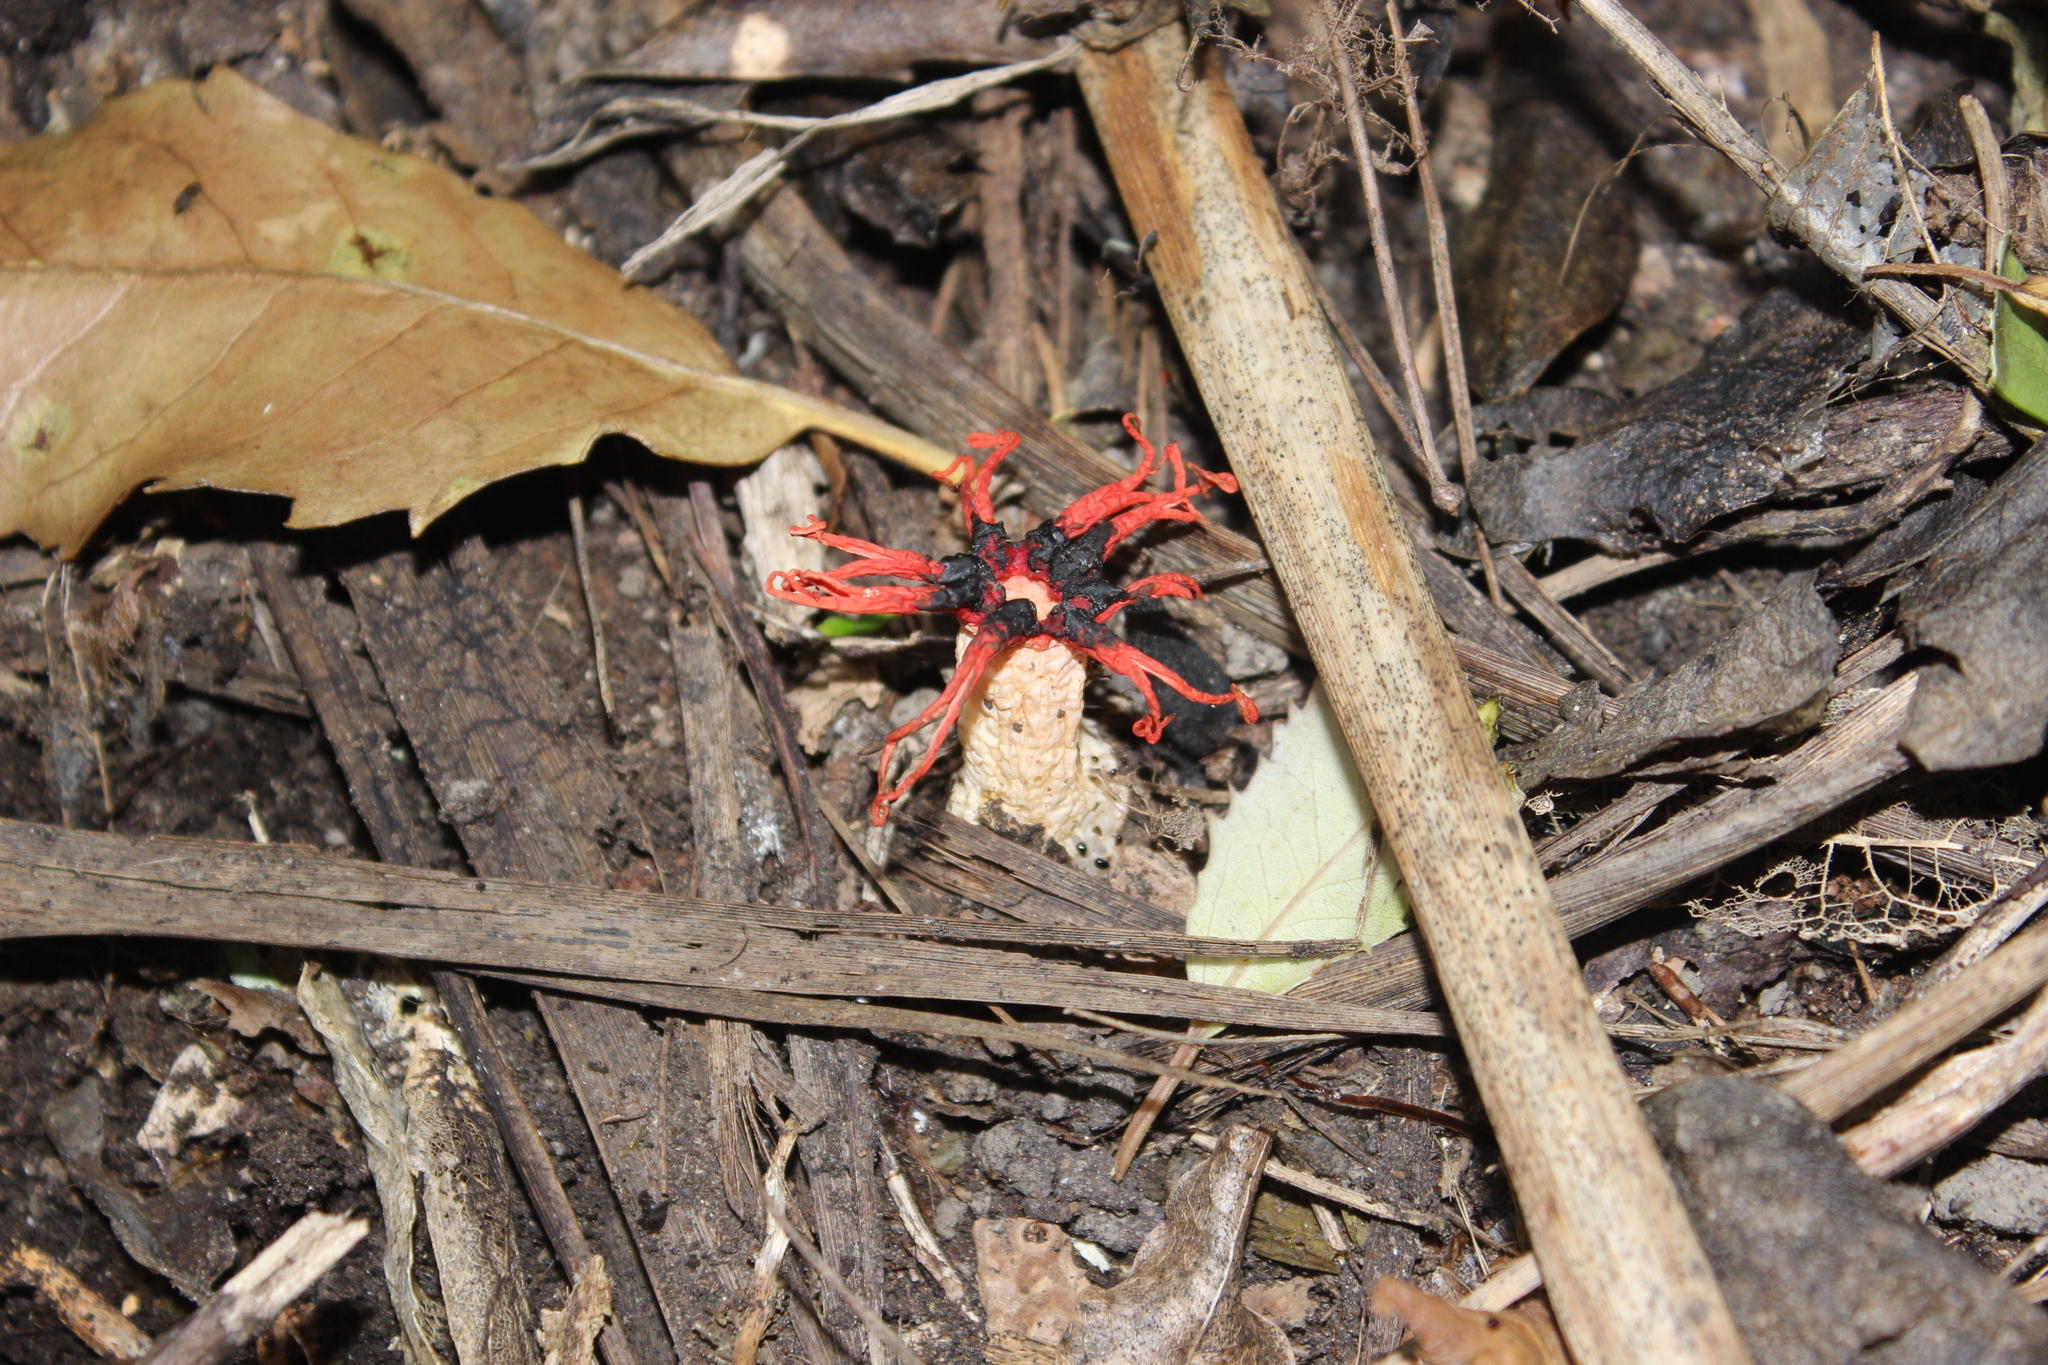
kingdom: Fungi
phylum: Basidiomycota
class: Agaricomycetes
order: Phallales
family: Phallaceae
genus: Aseroe
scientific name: Aseroe rubra
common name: Starfish fungus
